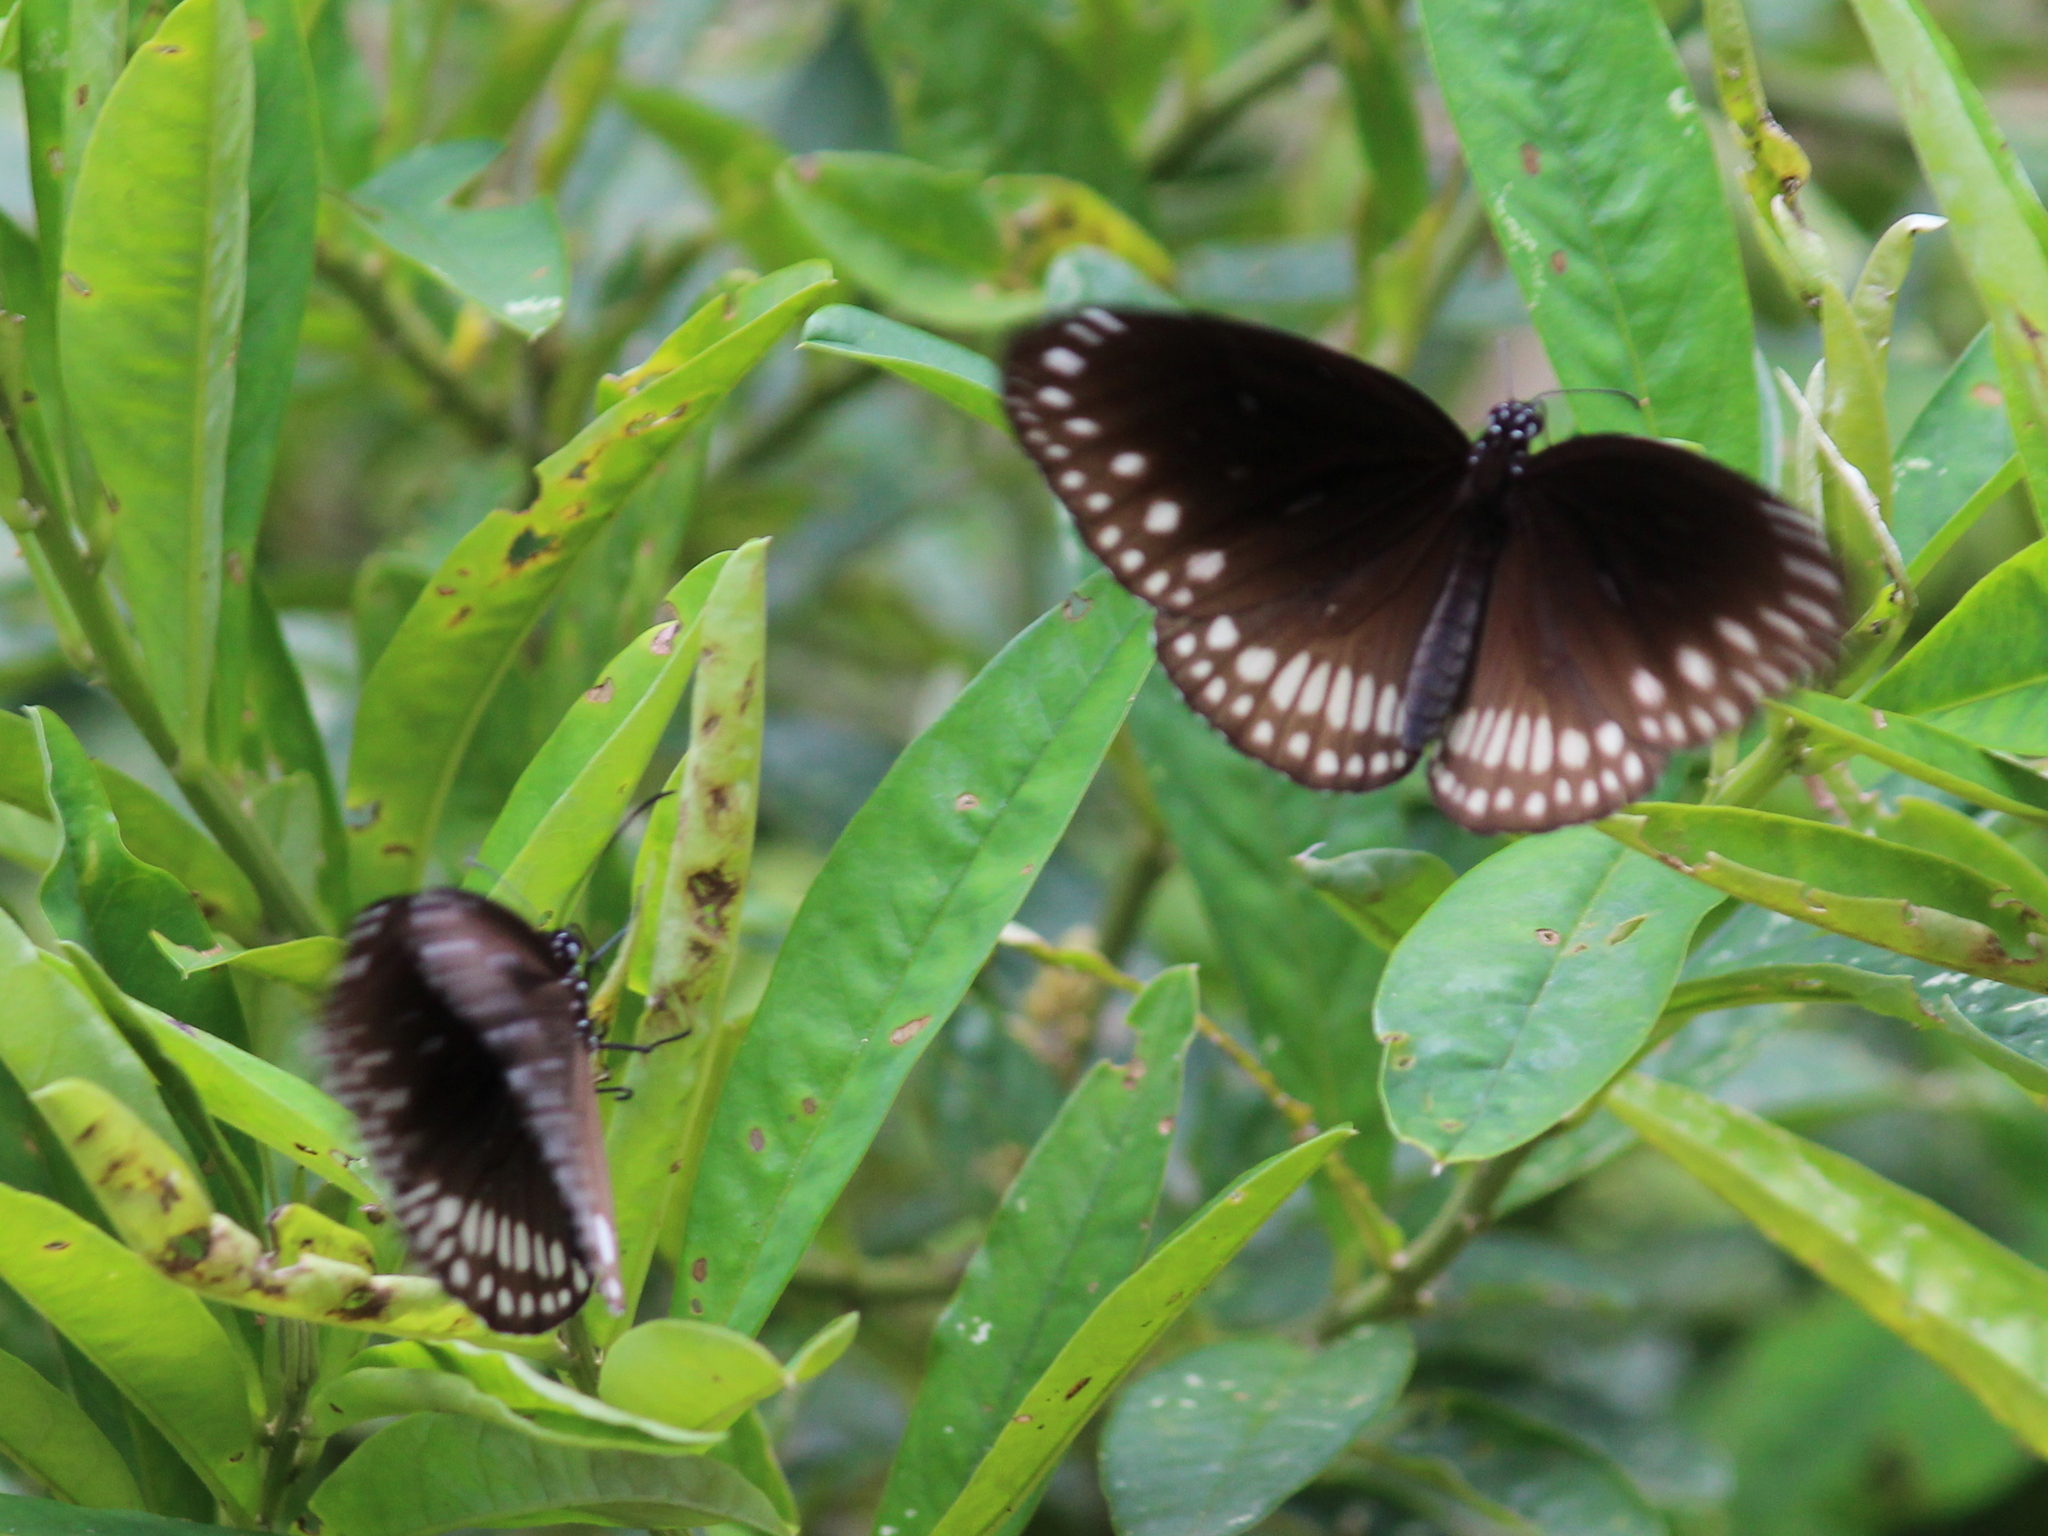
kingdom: Animalia
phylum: Arthropoda
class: Insecta
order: Lepidoptera
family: Nymphalidae
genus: Euploea
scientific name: Euploea core
